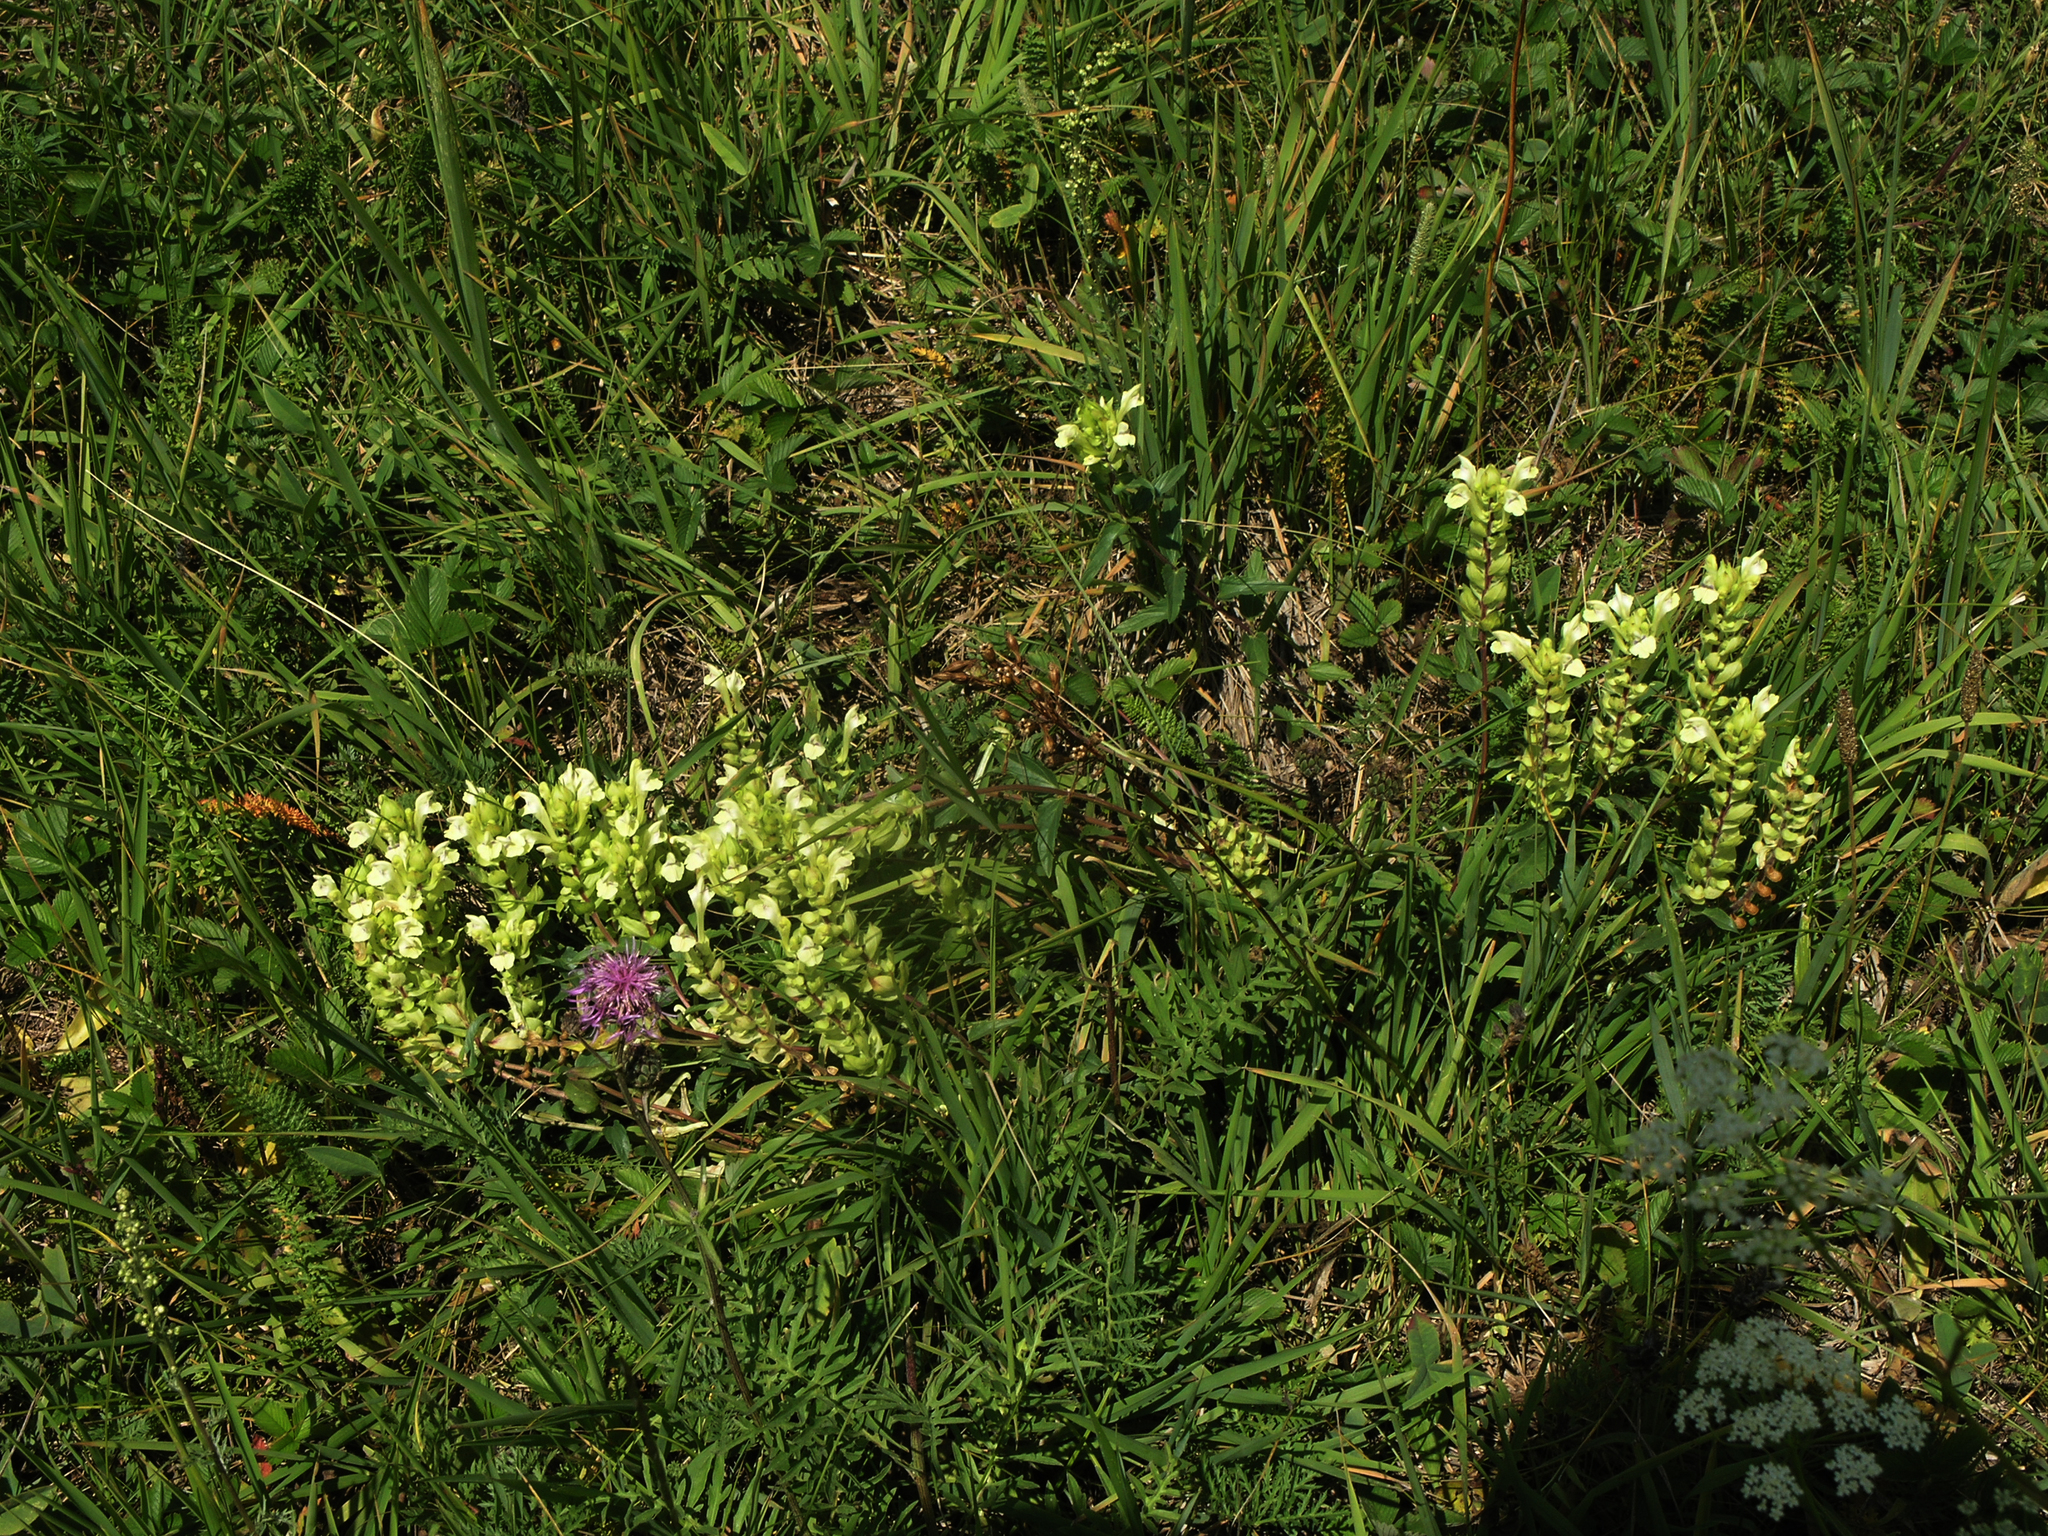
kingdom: Plantae
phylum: Tracheophyta
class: Magnoliopsida
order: Lamiales
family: Lamiaceae
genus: Scutellaria
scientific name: Scutellaria supina
